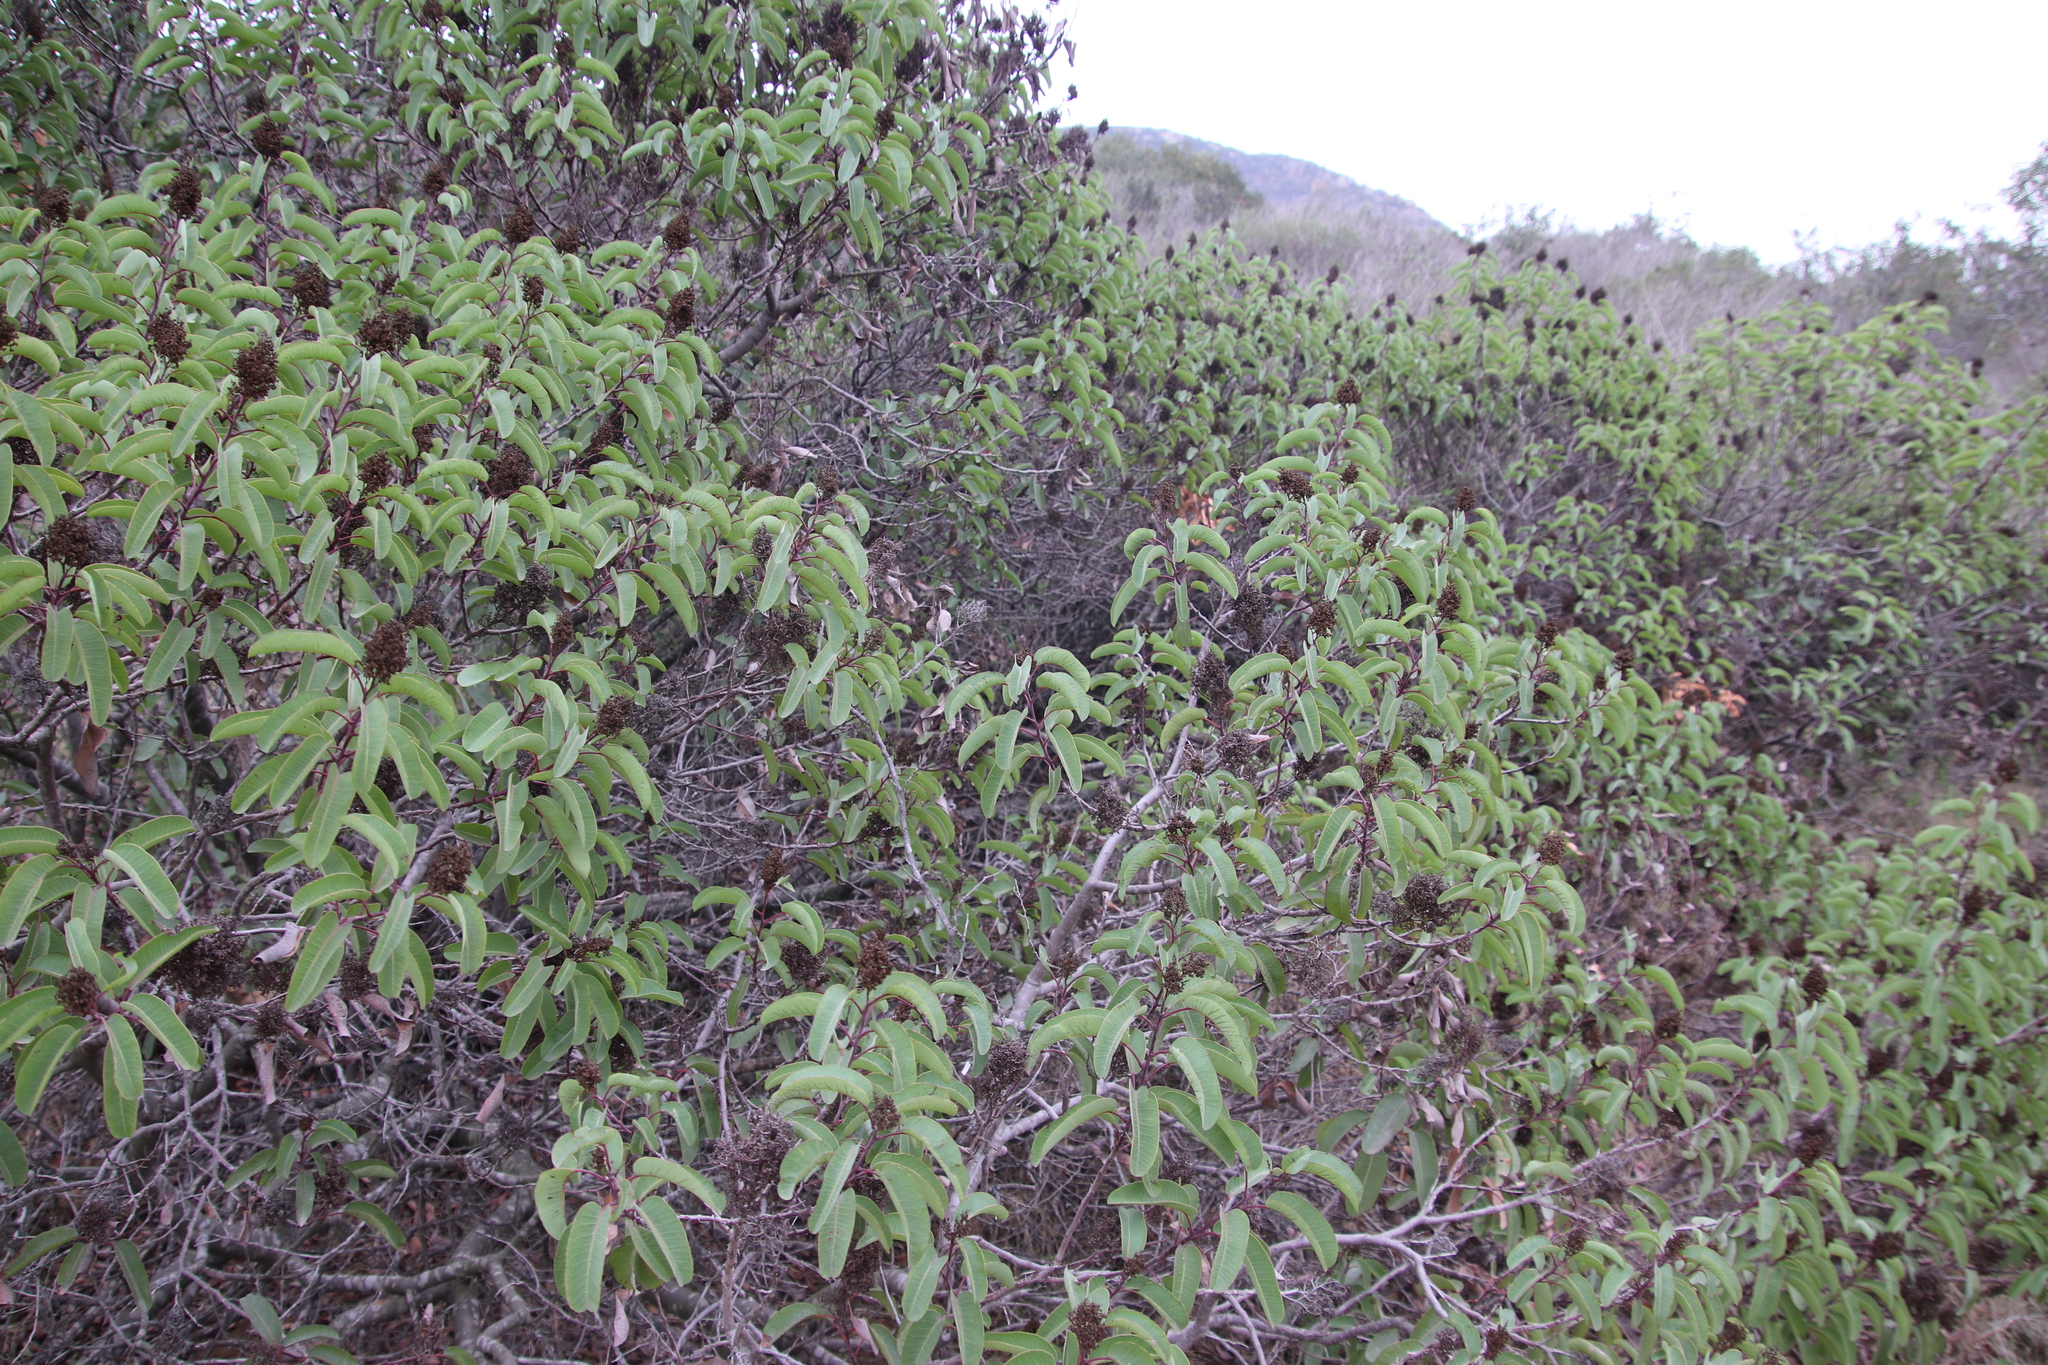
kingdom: Plantae
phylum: Tracheophyta
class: Magnoliopsida
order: Sapindales
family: Anacardiaceae
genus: Malosma
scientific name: Malosma laurina
